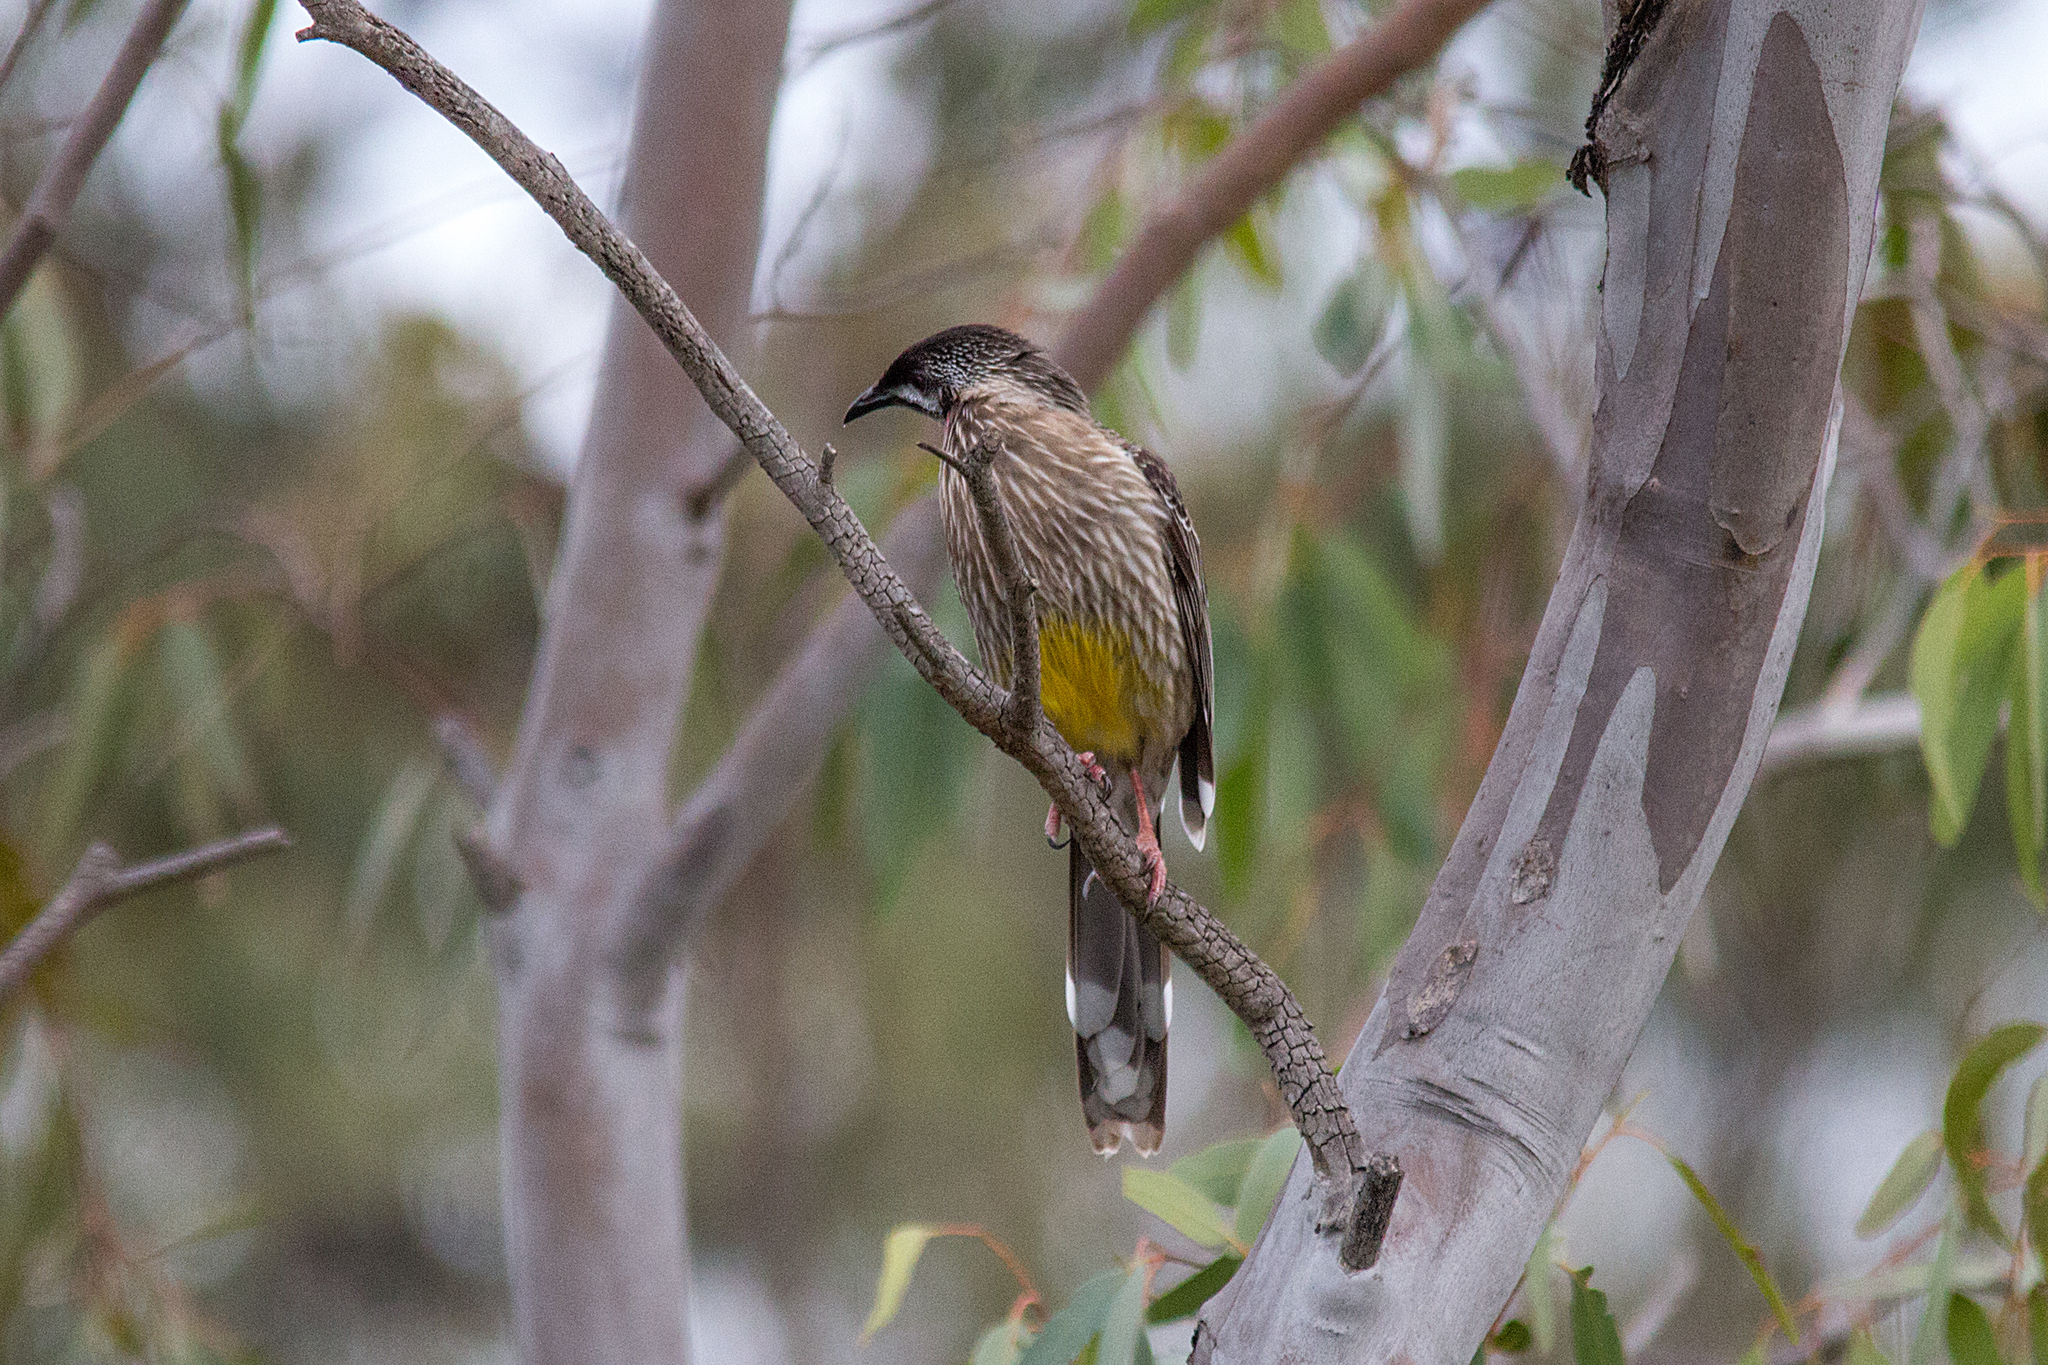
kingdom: Animalia
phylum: Chordata
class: Aves
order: Passeriformes
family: Meliphagidae
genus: Anthochaera
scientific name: Anthochaera carunculata
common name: Red wattlebird
